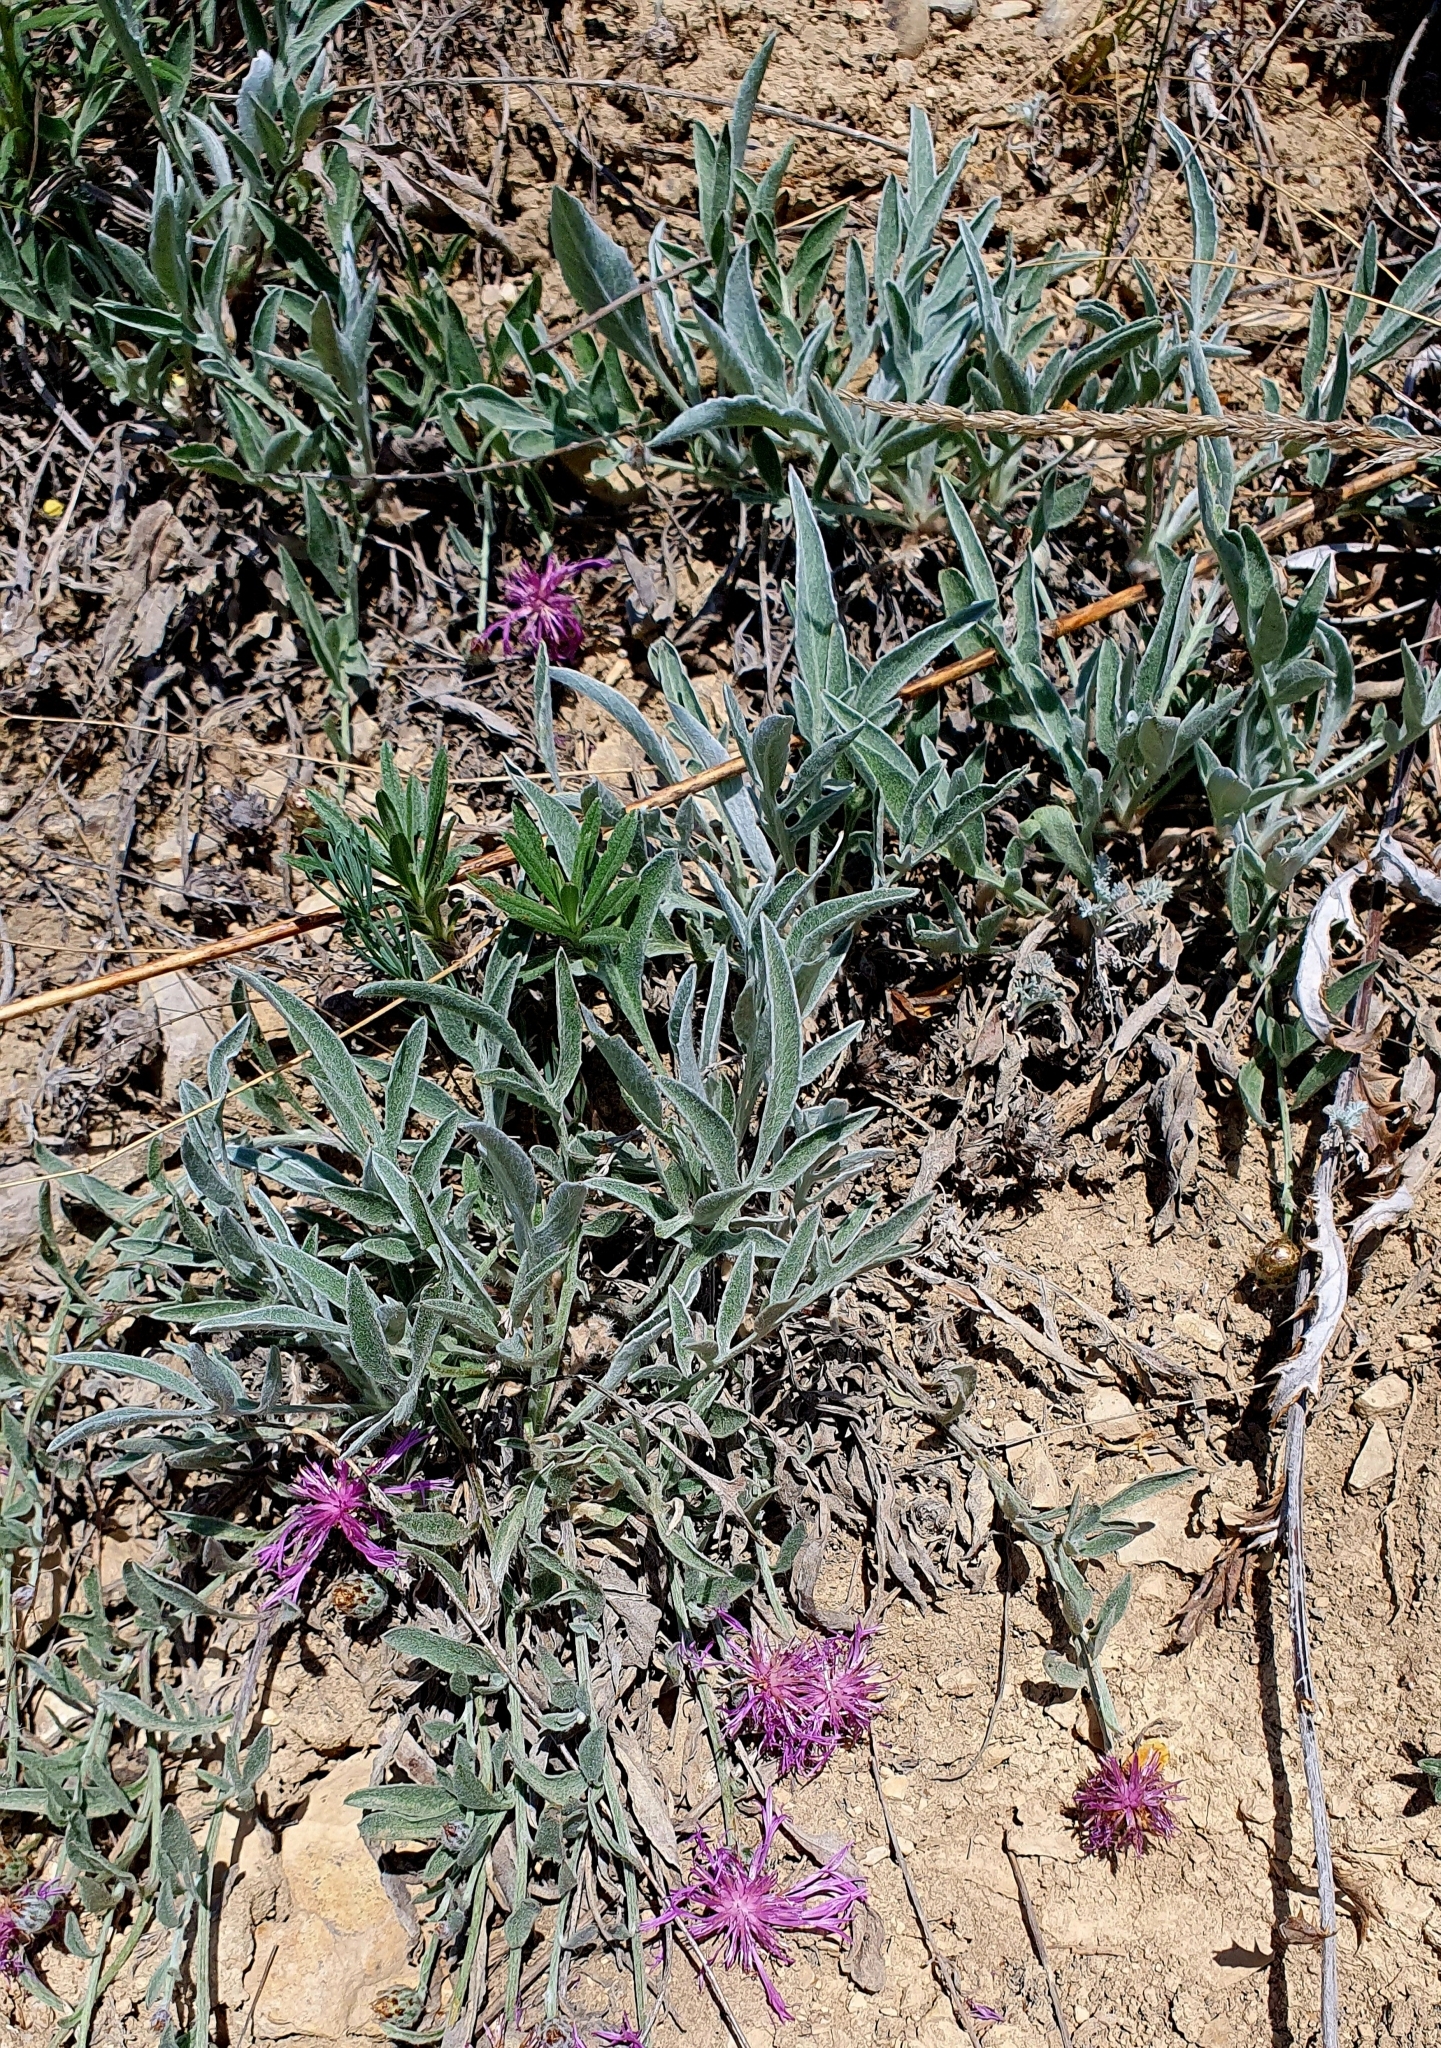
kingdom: Plantae
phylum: Tracheophyta
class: Magnoliopsida
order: Asterales
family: Asteraceae
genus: Psephellus
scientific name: Psephellus marschallianus
